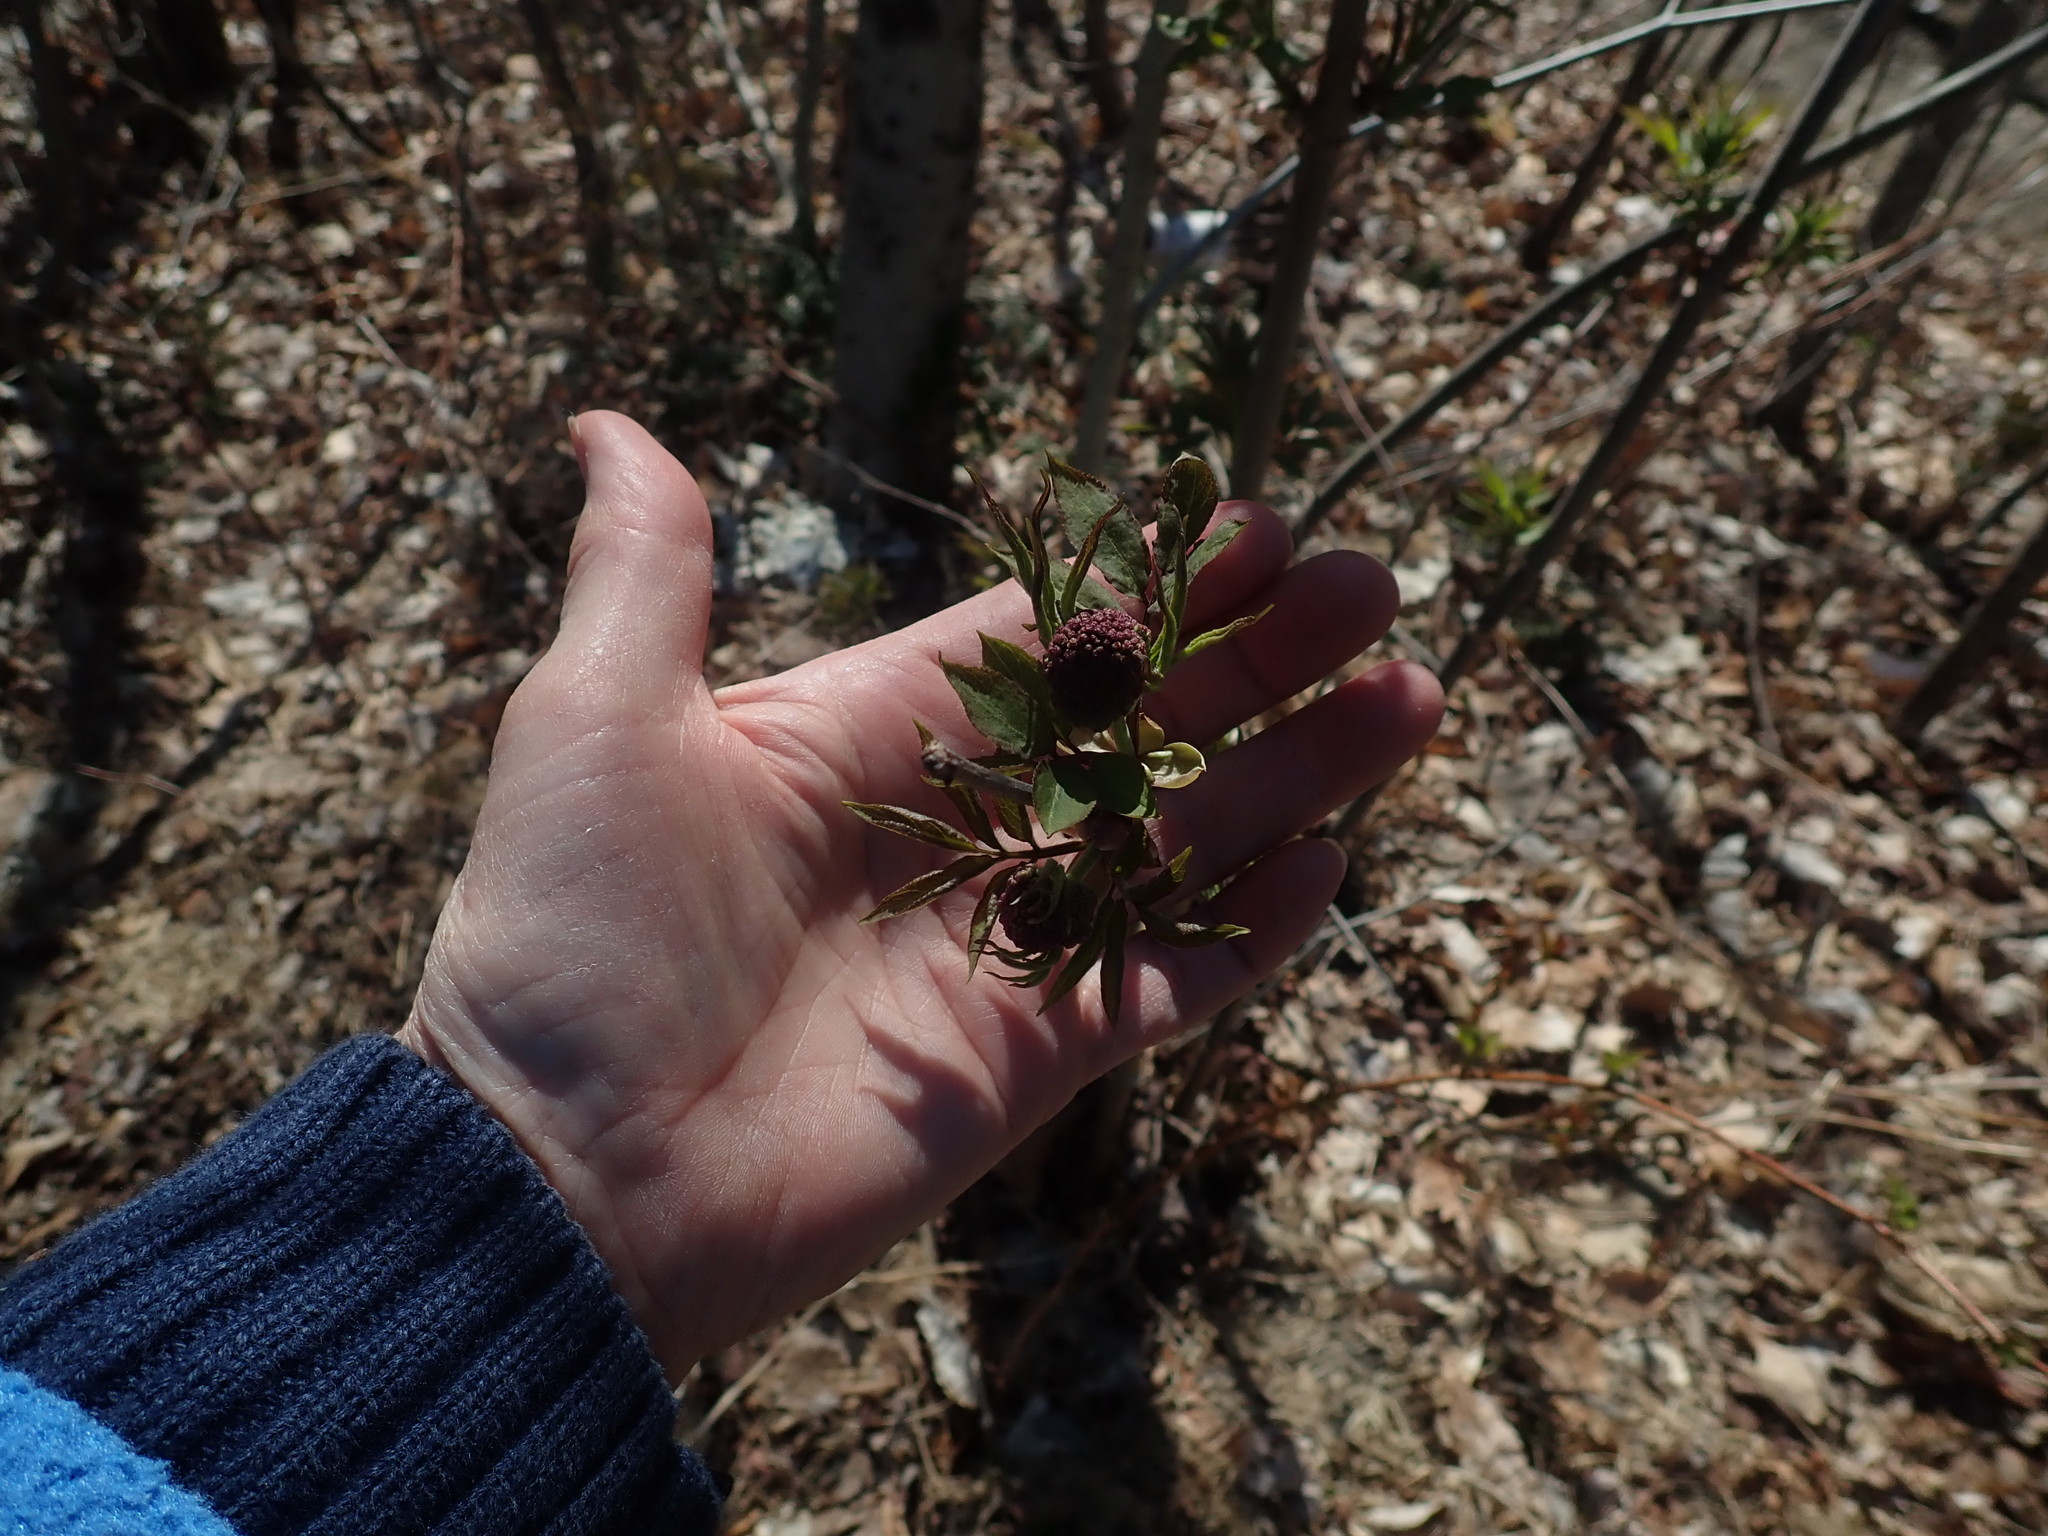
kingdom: Plantae
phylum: Tracheophyta
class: Magnoliopsida
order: Dipsacales
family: Viburnaceae
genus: Sambucus
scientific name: Sambucus racemosa
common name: Red-berried elder
